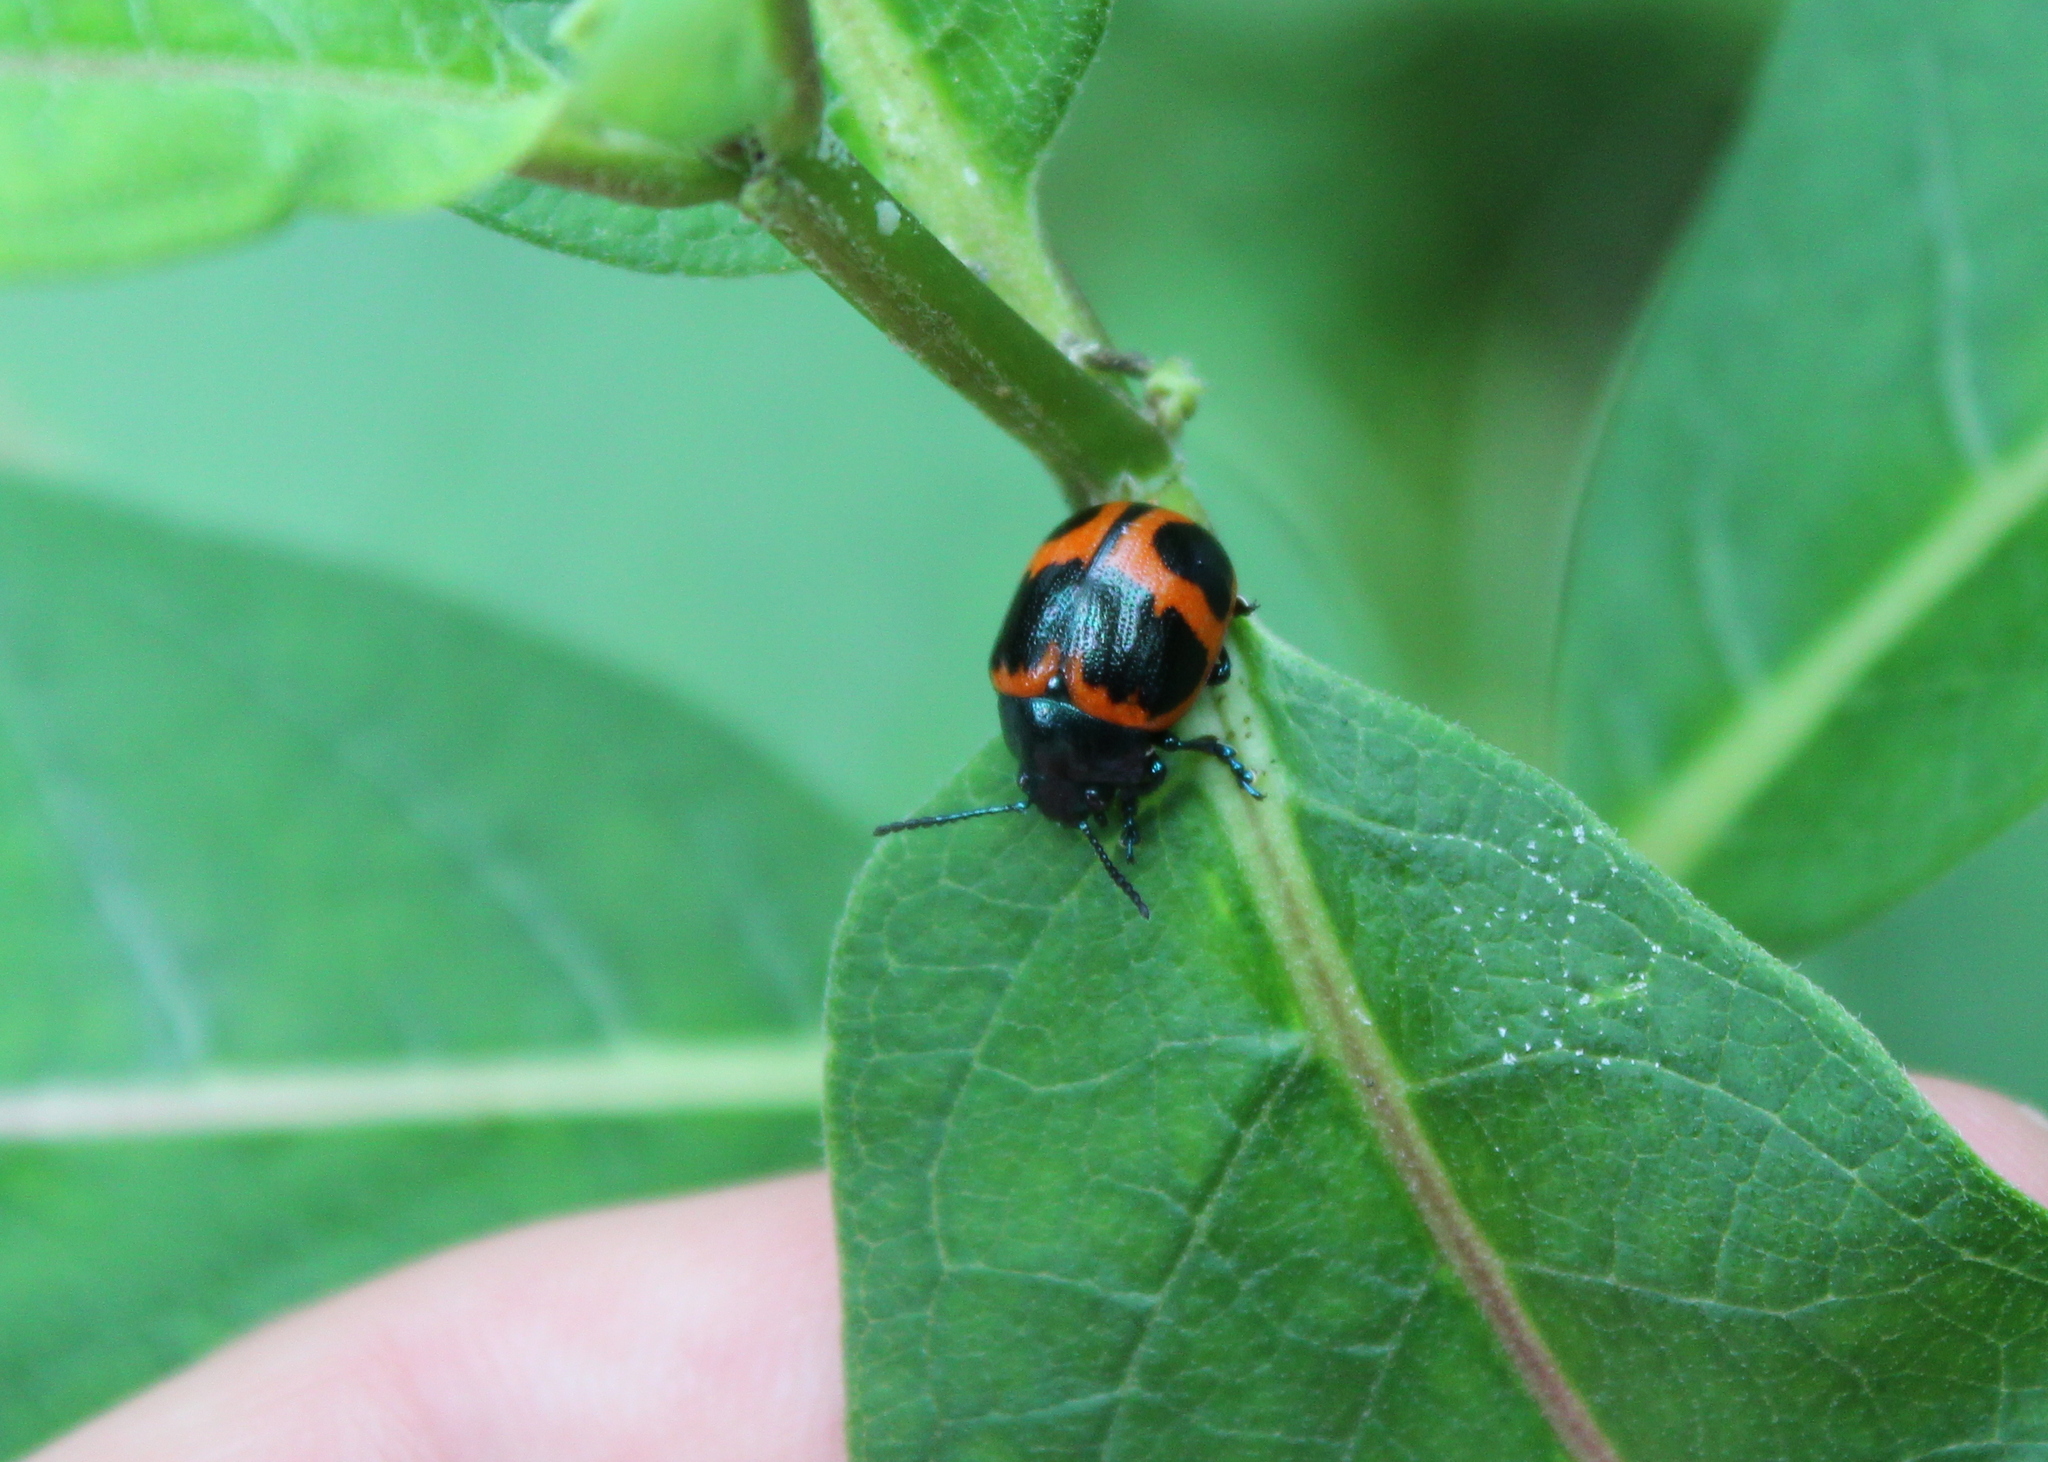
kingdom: Animalia
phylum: Arthropoda
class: Insecta
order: Coleoptera
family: Chrysomelidae
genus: Labidomera
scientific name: Labidomera clivicollis
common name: Swamp milkweed leaf beetle
